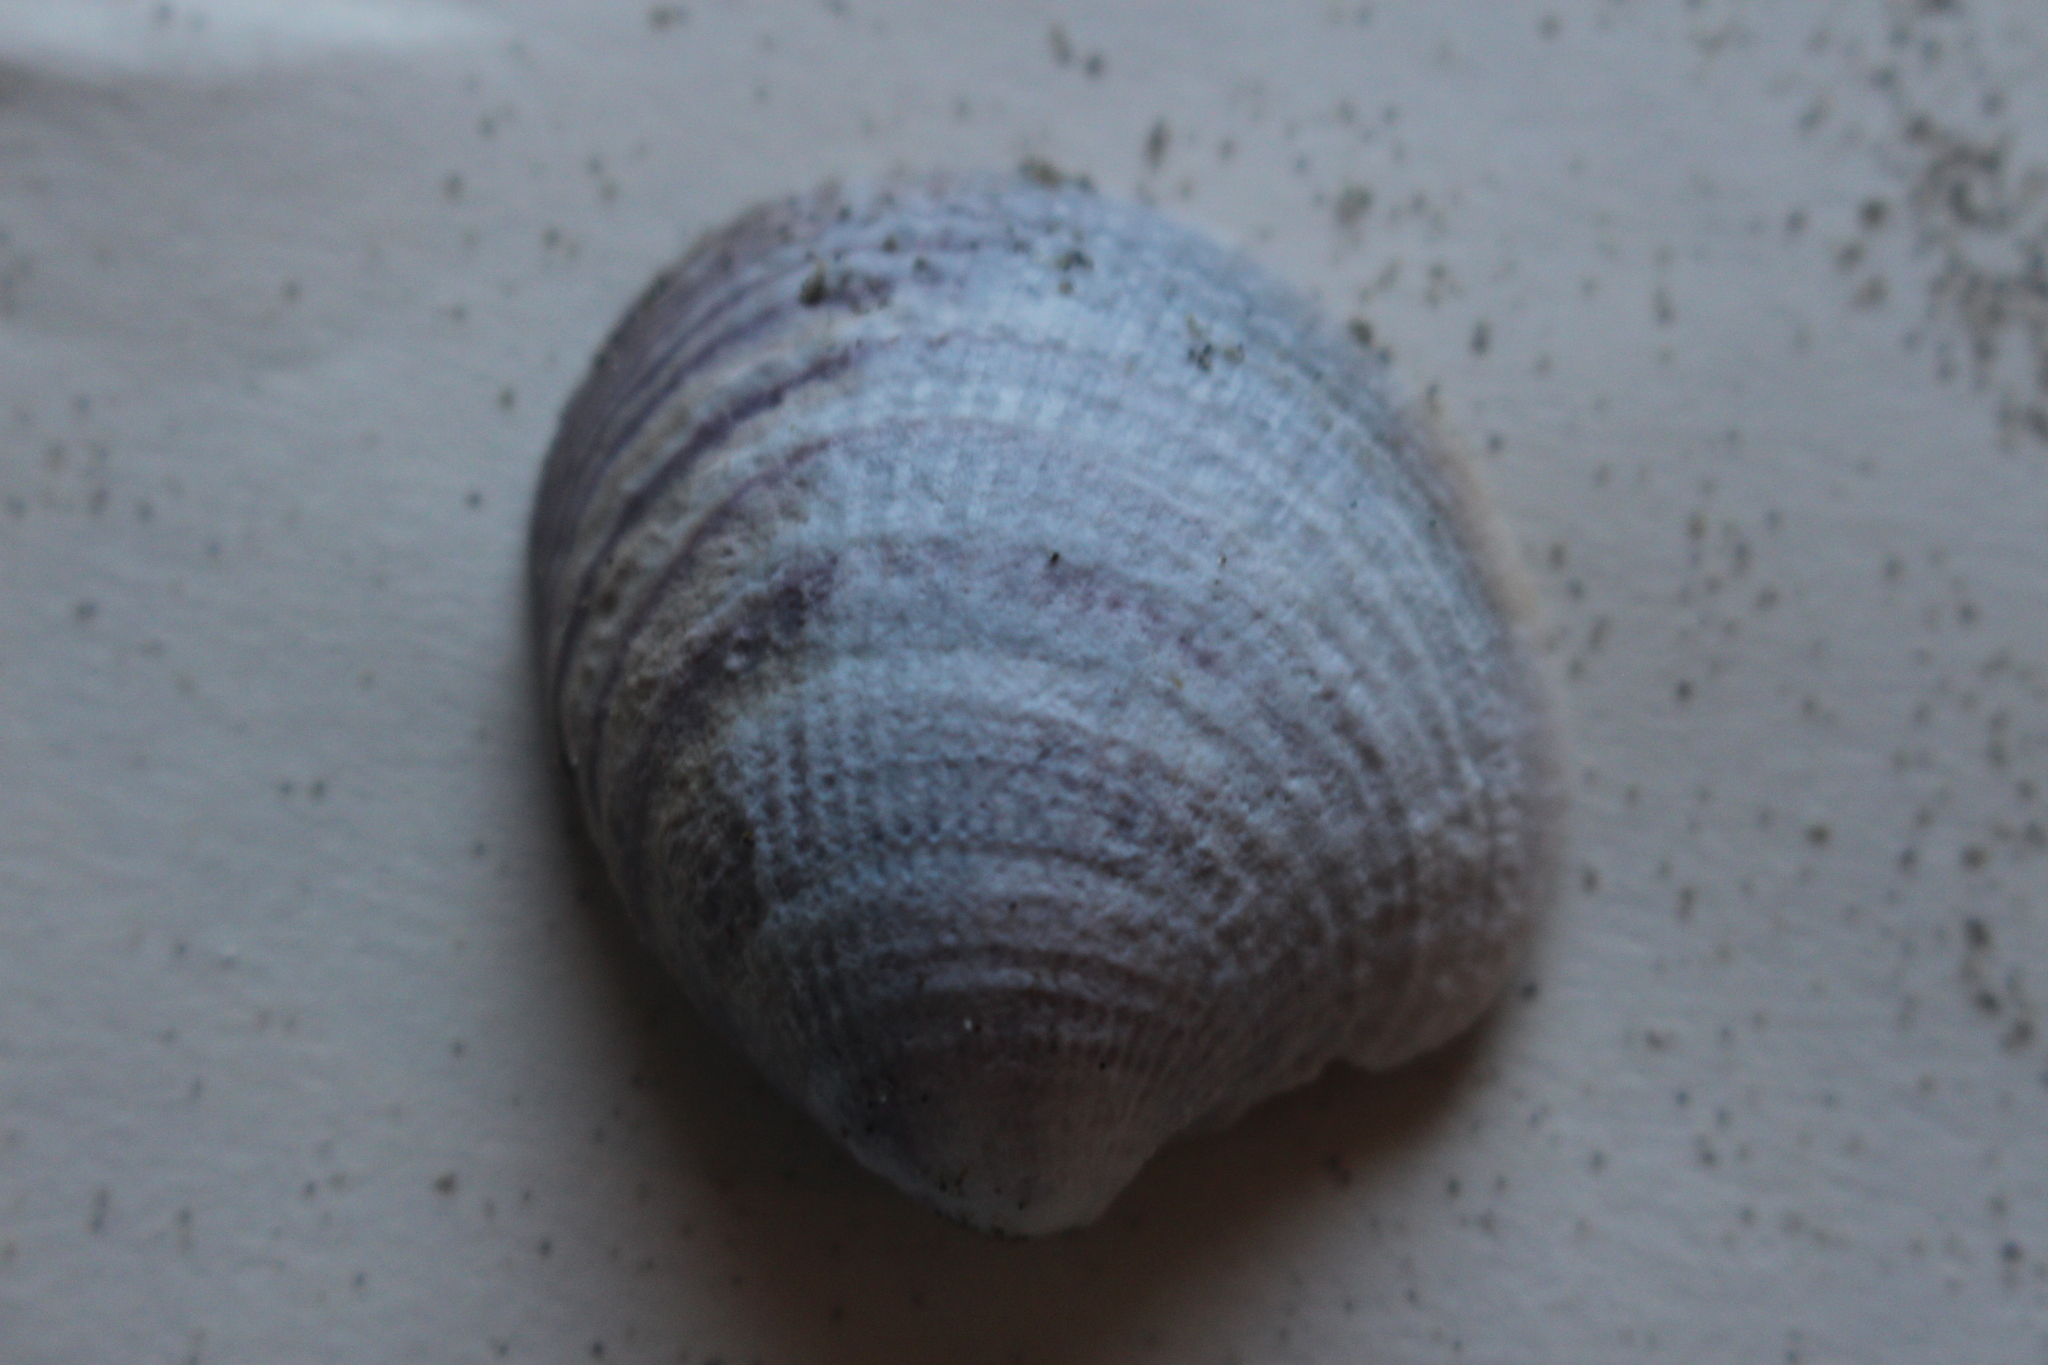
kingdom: Animalia
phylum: Mollusca
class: Bivalvia
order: Venerida
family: Veneridae
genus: Austrovenus
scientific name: Austrovenus stutchburyi
